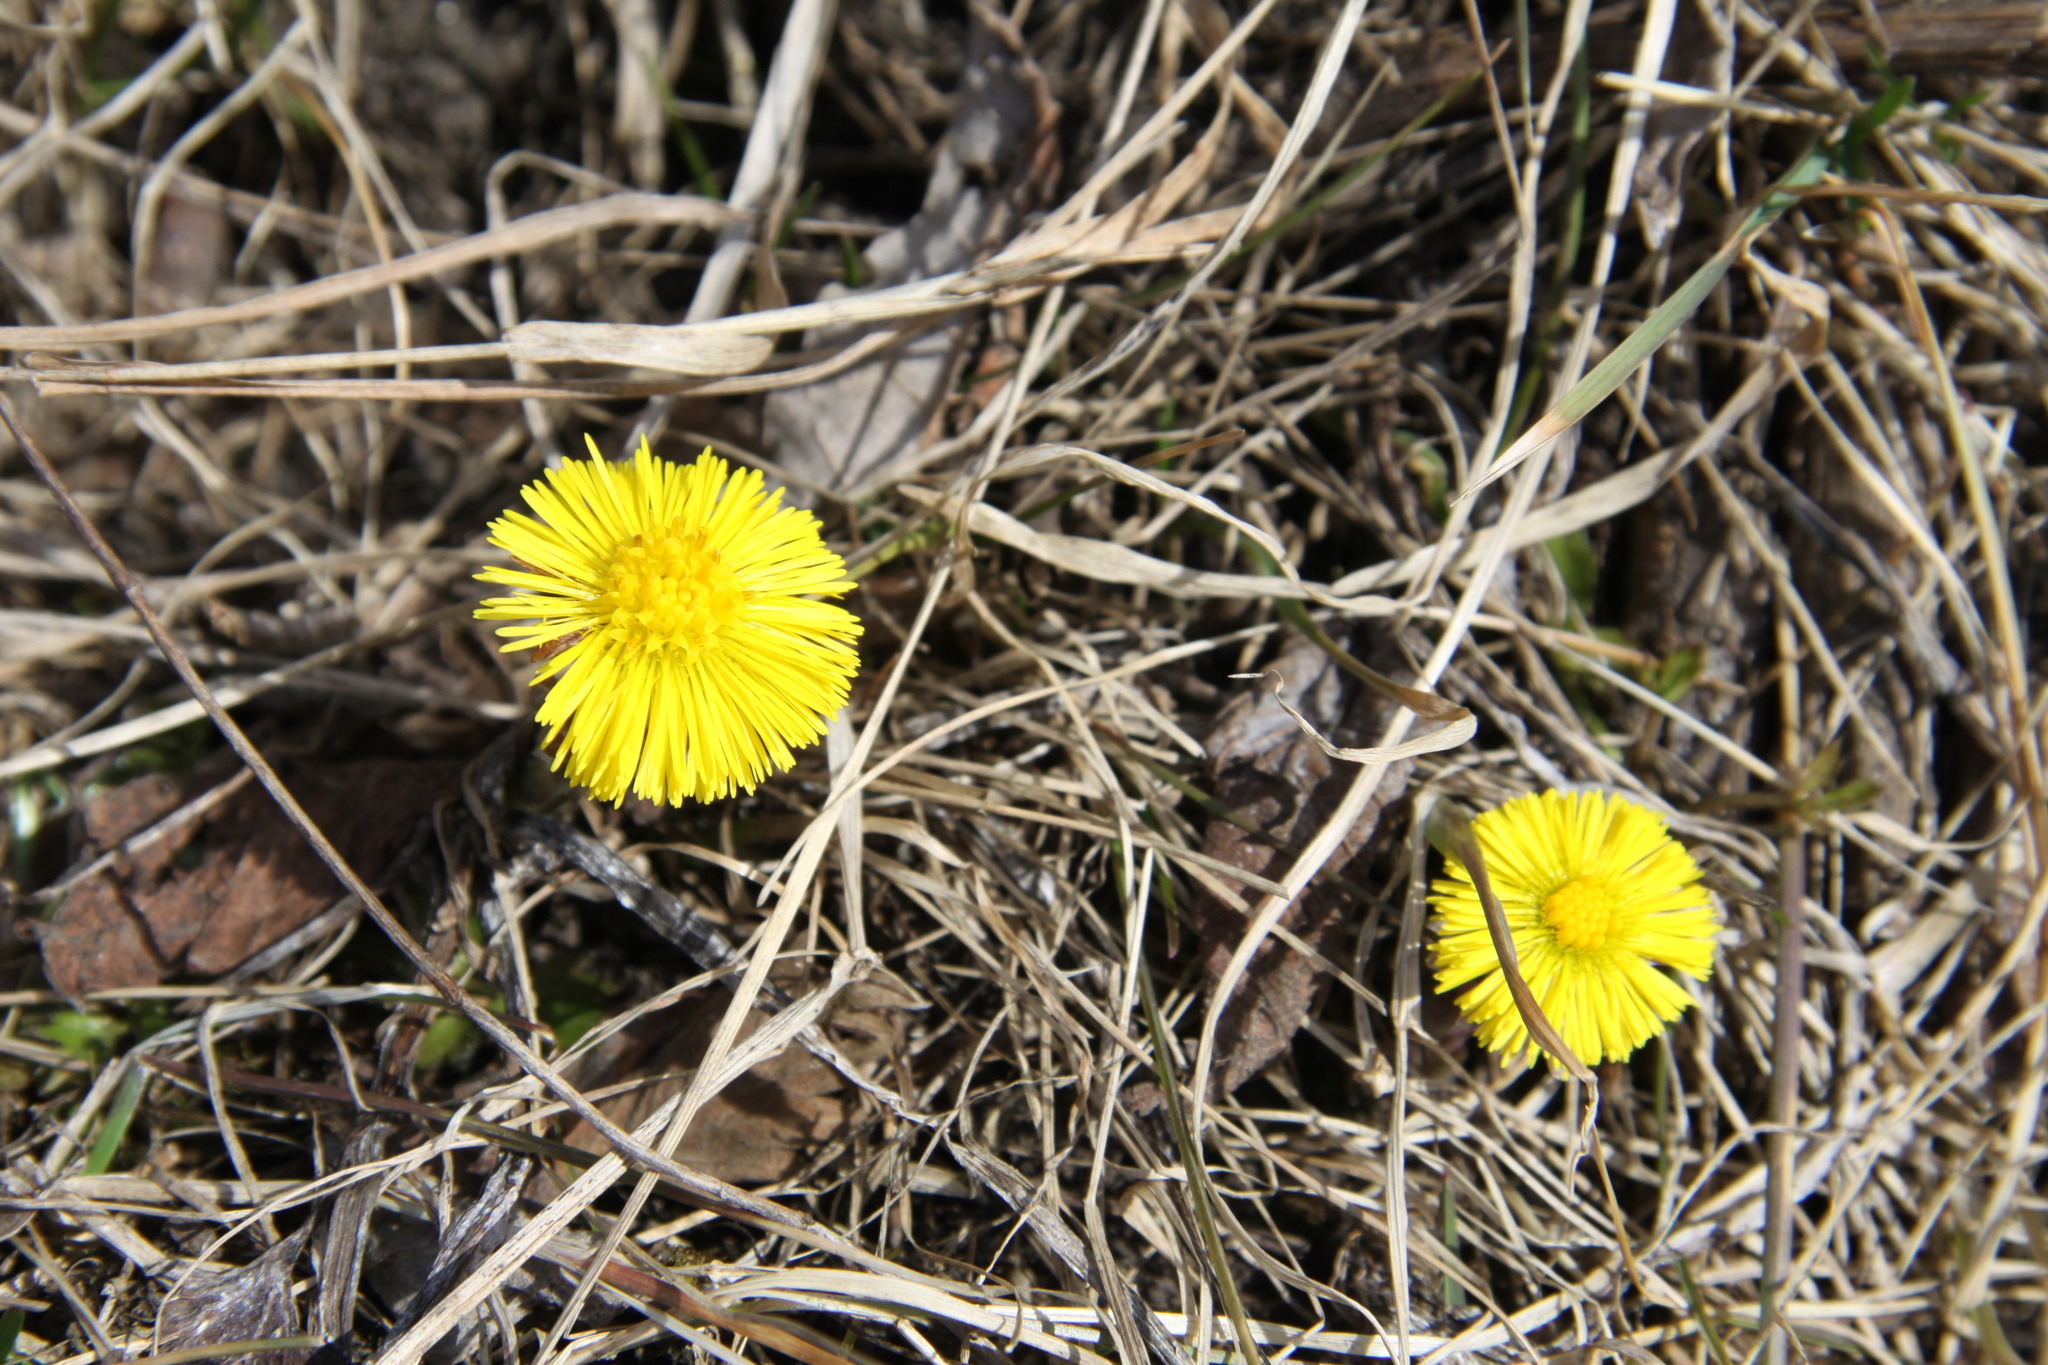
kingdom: Plantae
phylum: Tracheophyta
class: Magnoliopsida
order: Asterales
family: Asteraceae
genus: Tussilago
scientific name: Tussilago farfara
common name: Coltsfoot
